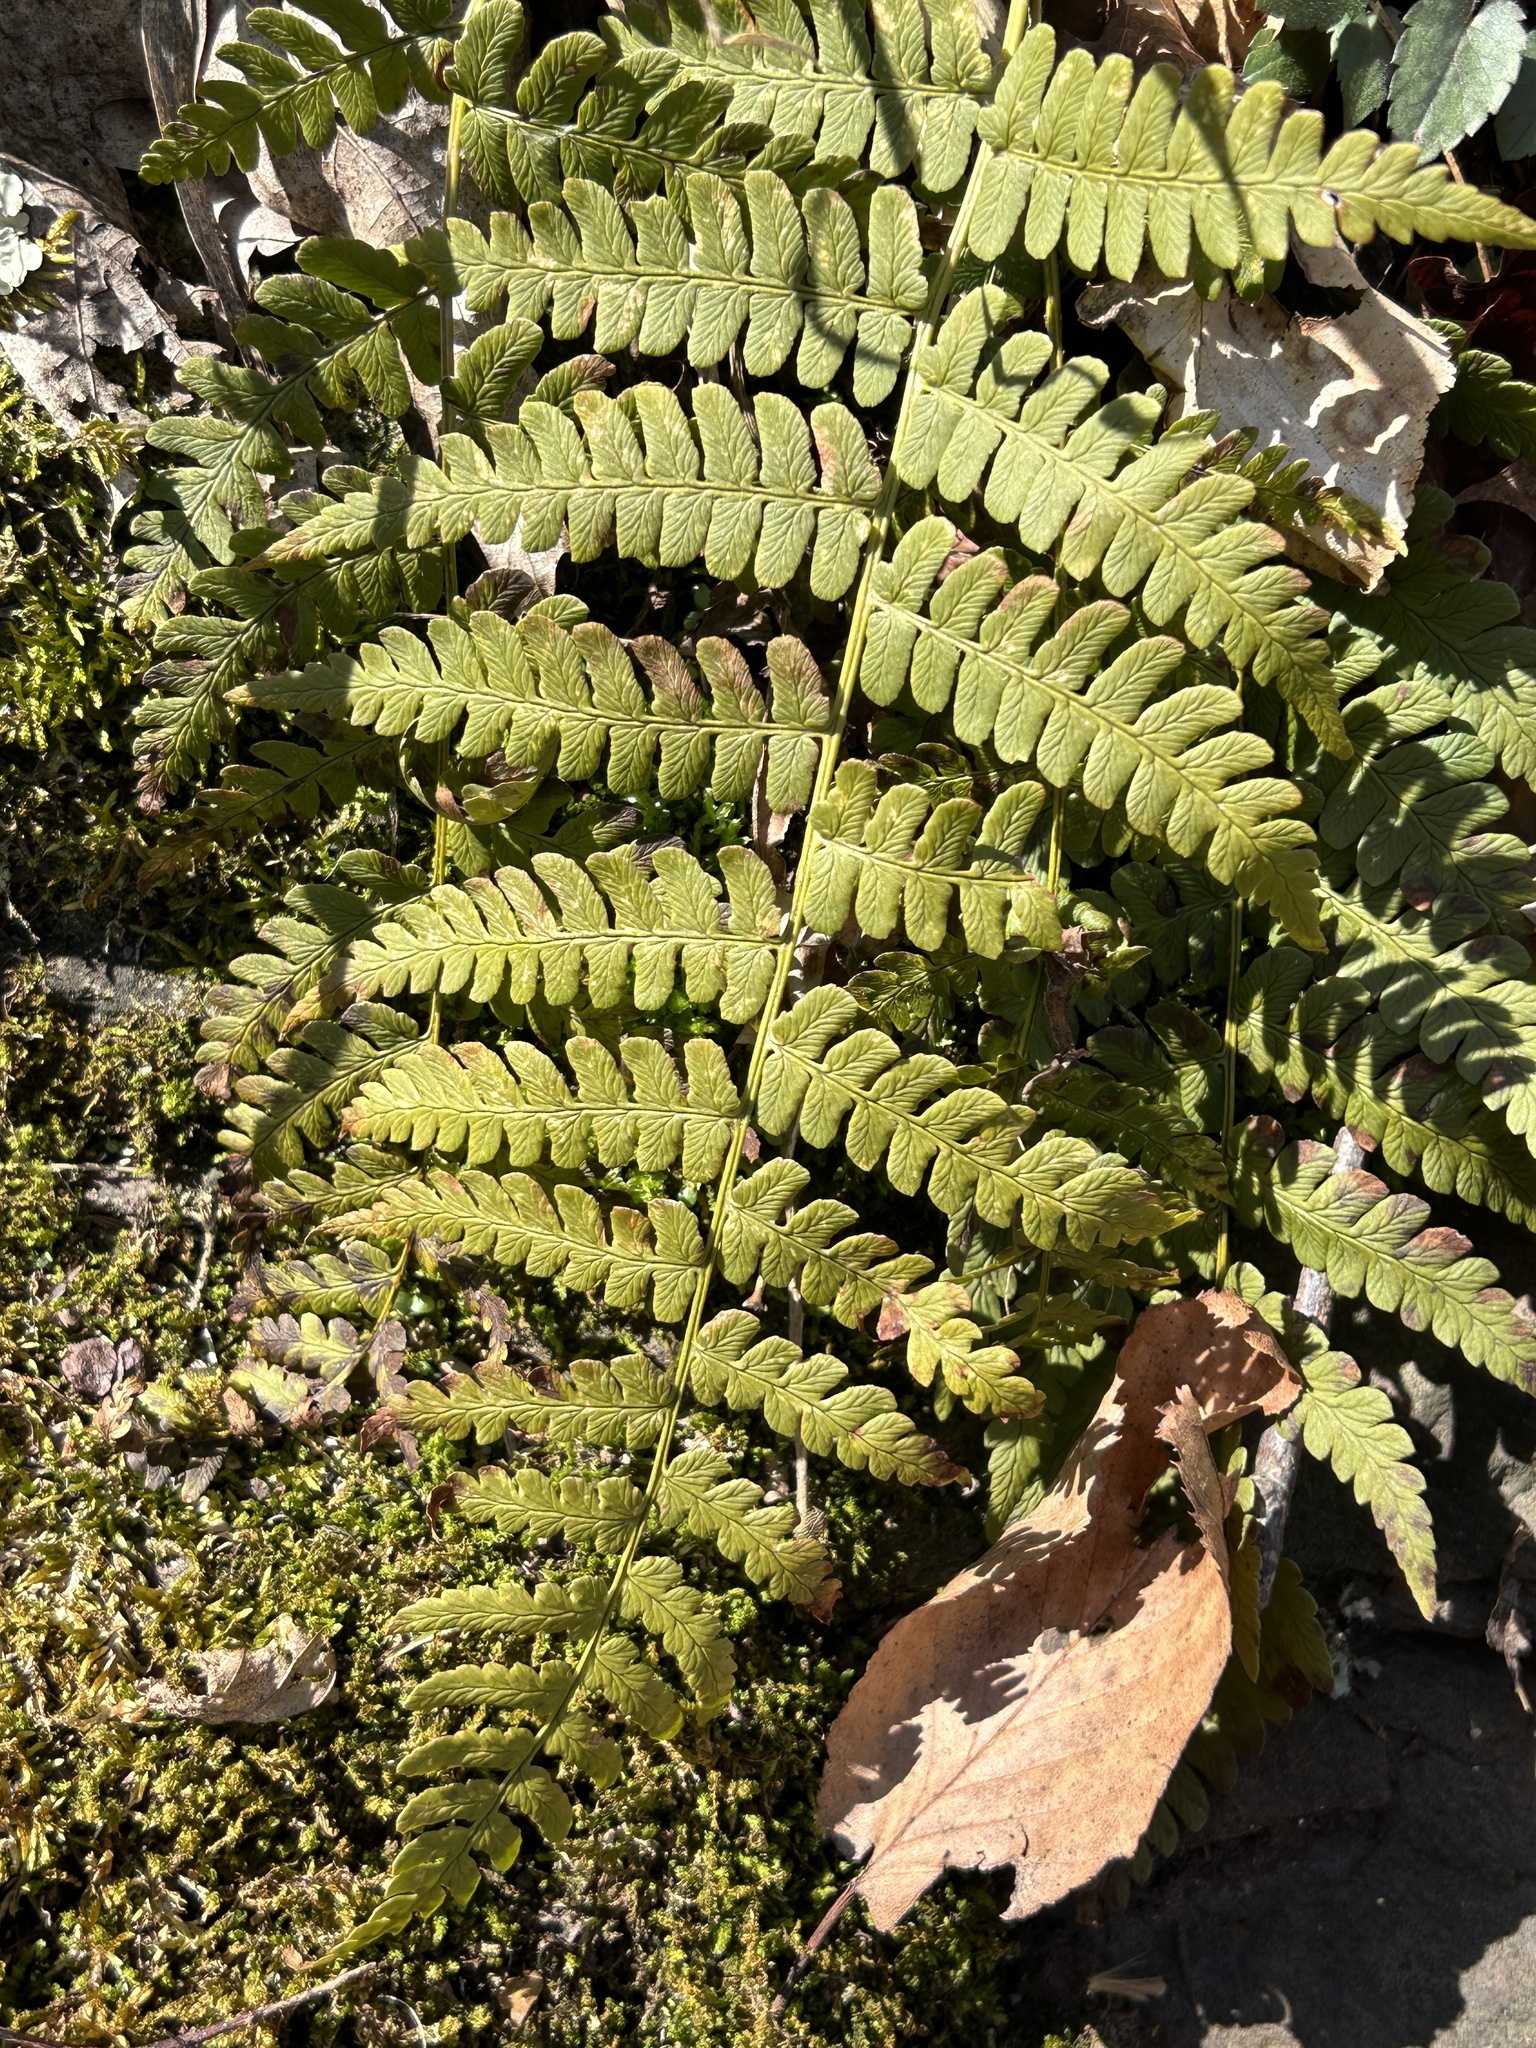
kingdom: Plantae
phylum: Tracheophyta
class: Polypodiopsida
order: Polypodiales
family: Dryopteridaceae
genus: Dryopteris
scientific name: Dryopteris marginalis
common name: Marginal wood fern
